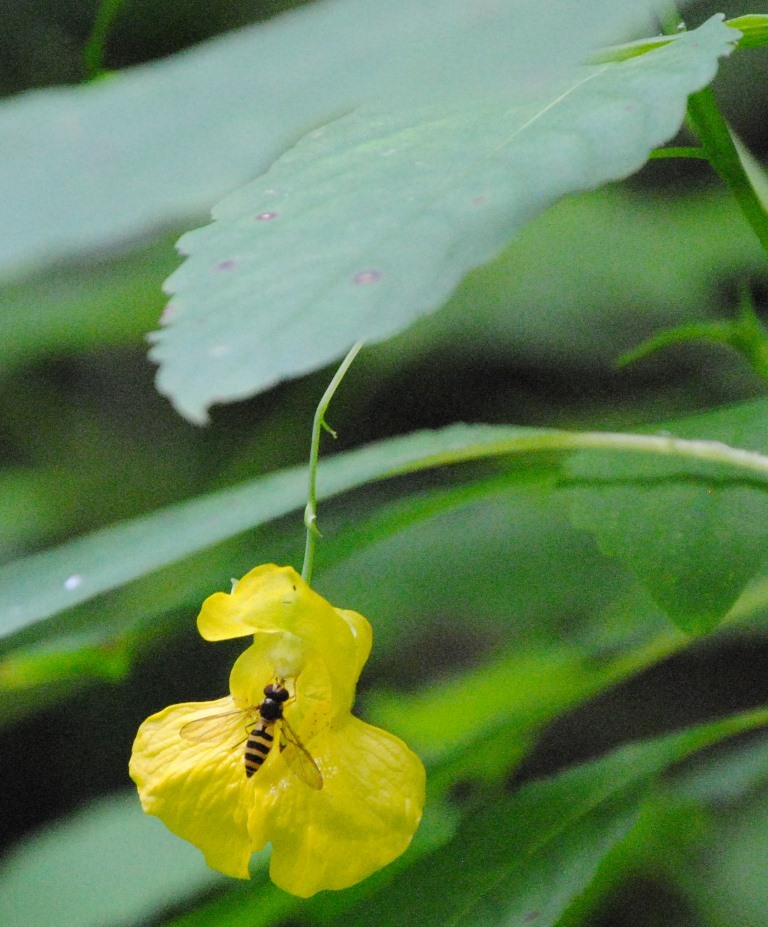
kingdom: Animalia
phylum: Arthropoda
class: Insecta
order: Diptera
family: Syrphidae
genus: Meliscaeva
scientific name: Meliscaeva cinctella
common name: American thintail fly
